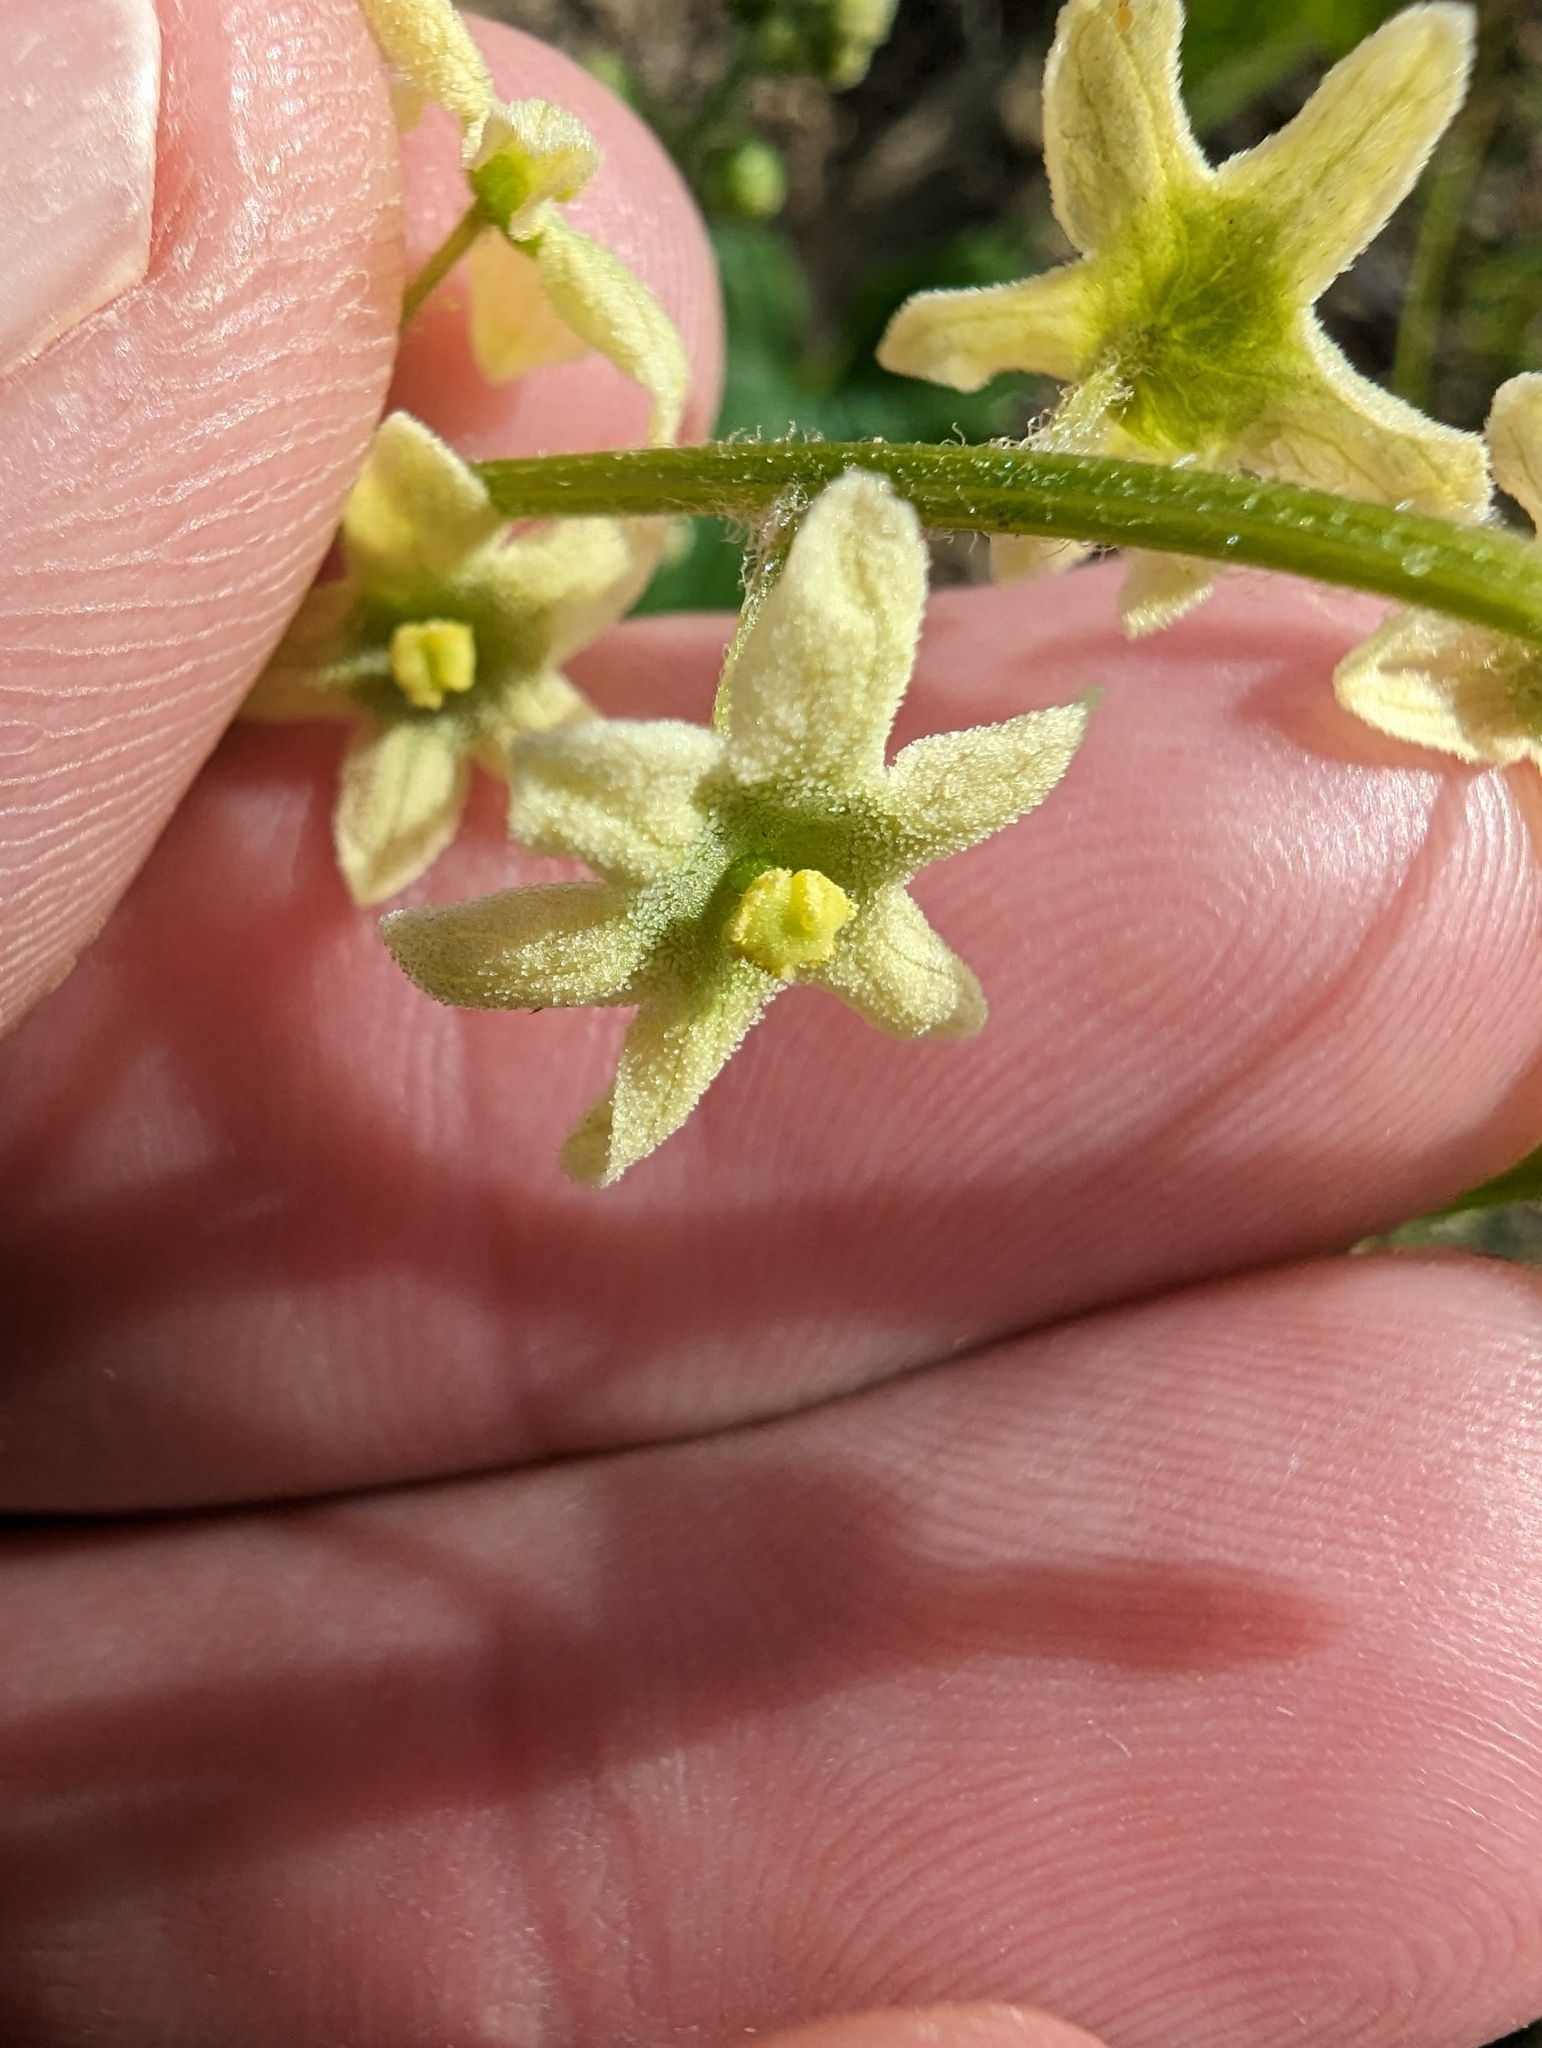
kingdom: Plantae
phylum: Tracheophyta
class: Magnoliopsida
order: Cucurbitales
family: Cucurbitaceae
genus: Marah
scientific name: Marah fabacea
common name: California manroot
